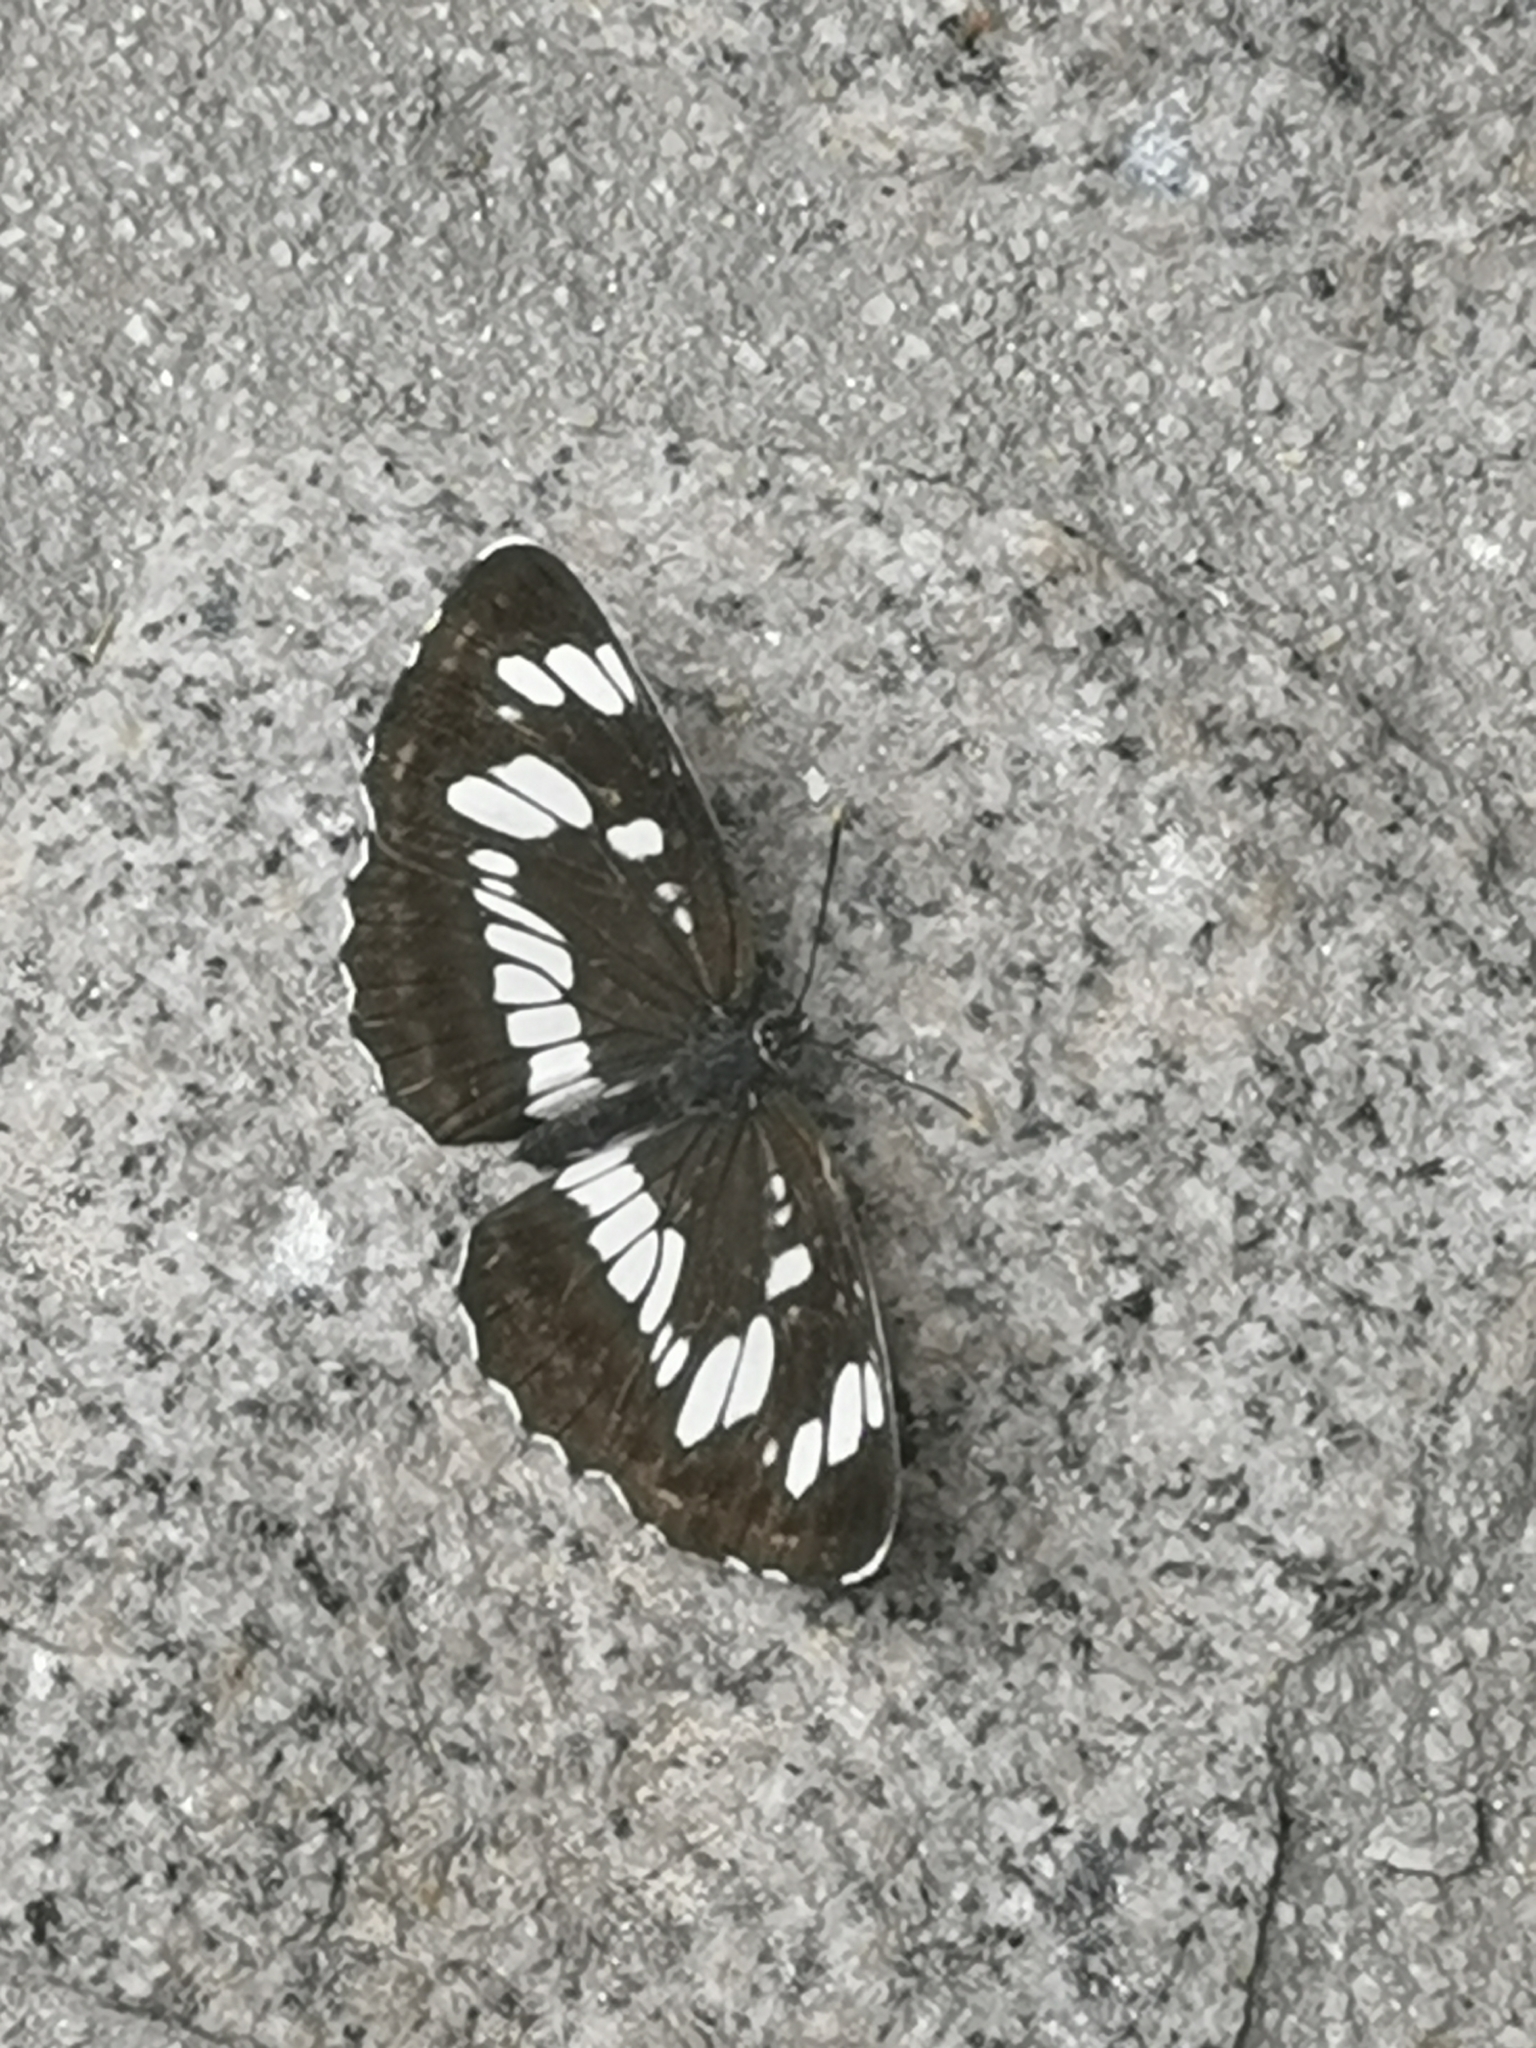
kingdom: Animalia
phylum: Arthropoda
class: Insecta
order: Lepidoptera
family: Nymphalidae
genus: Neptis
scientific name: Neptis rivularis
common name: Hungarian glider
